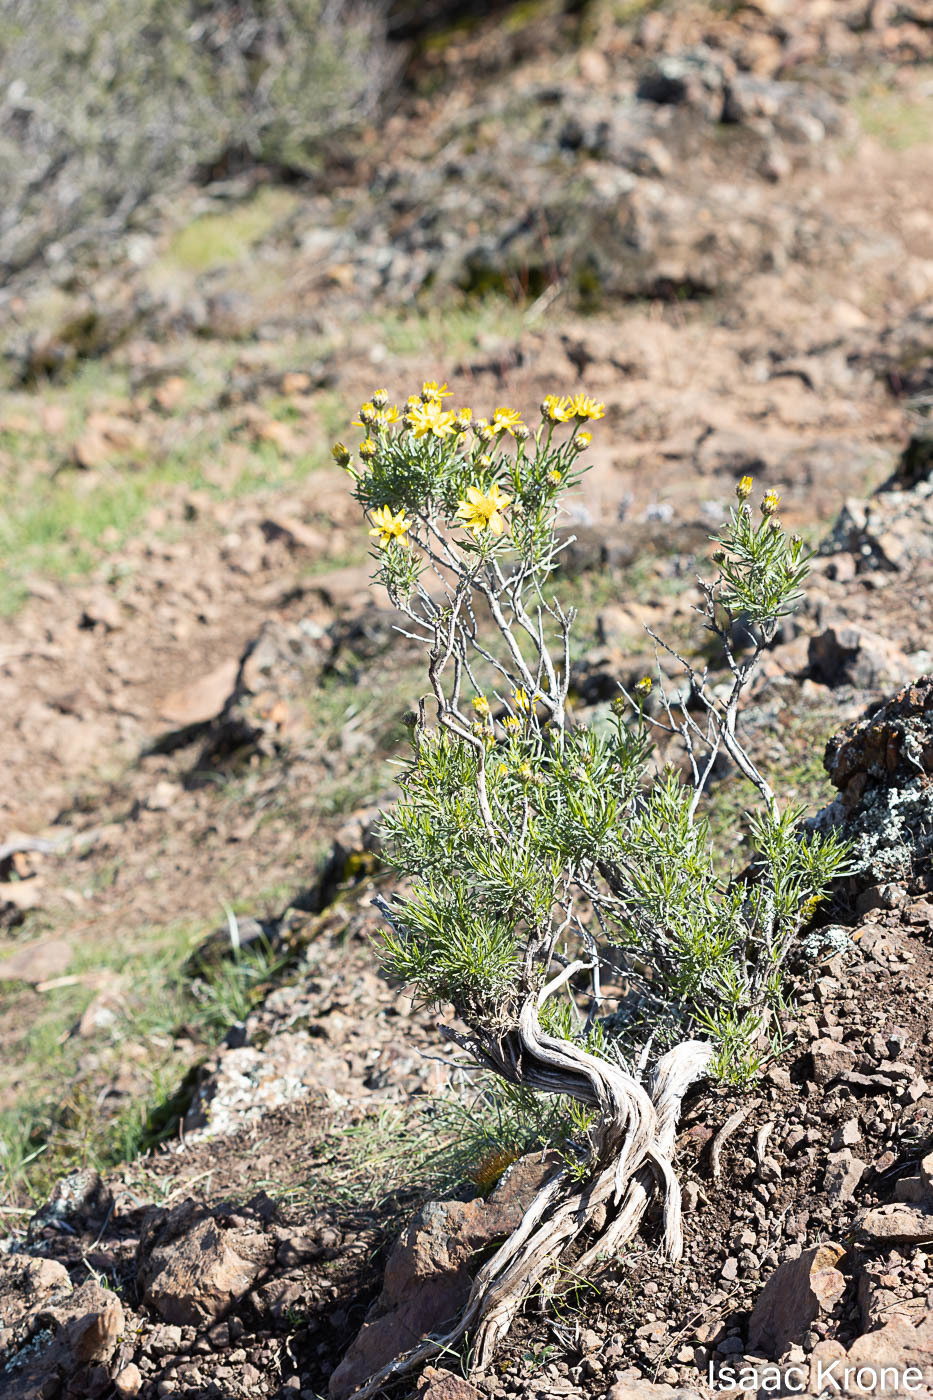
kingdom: Plantae
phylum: Tracheophyta
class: Magnoliopsida
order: Asterales
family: Asteraceae
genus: Ericameria
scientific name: Ericameria linearifolia
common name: Interior goldenbush
